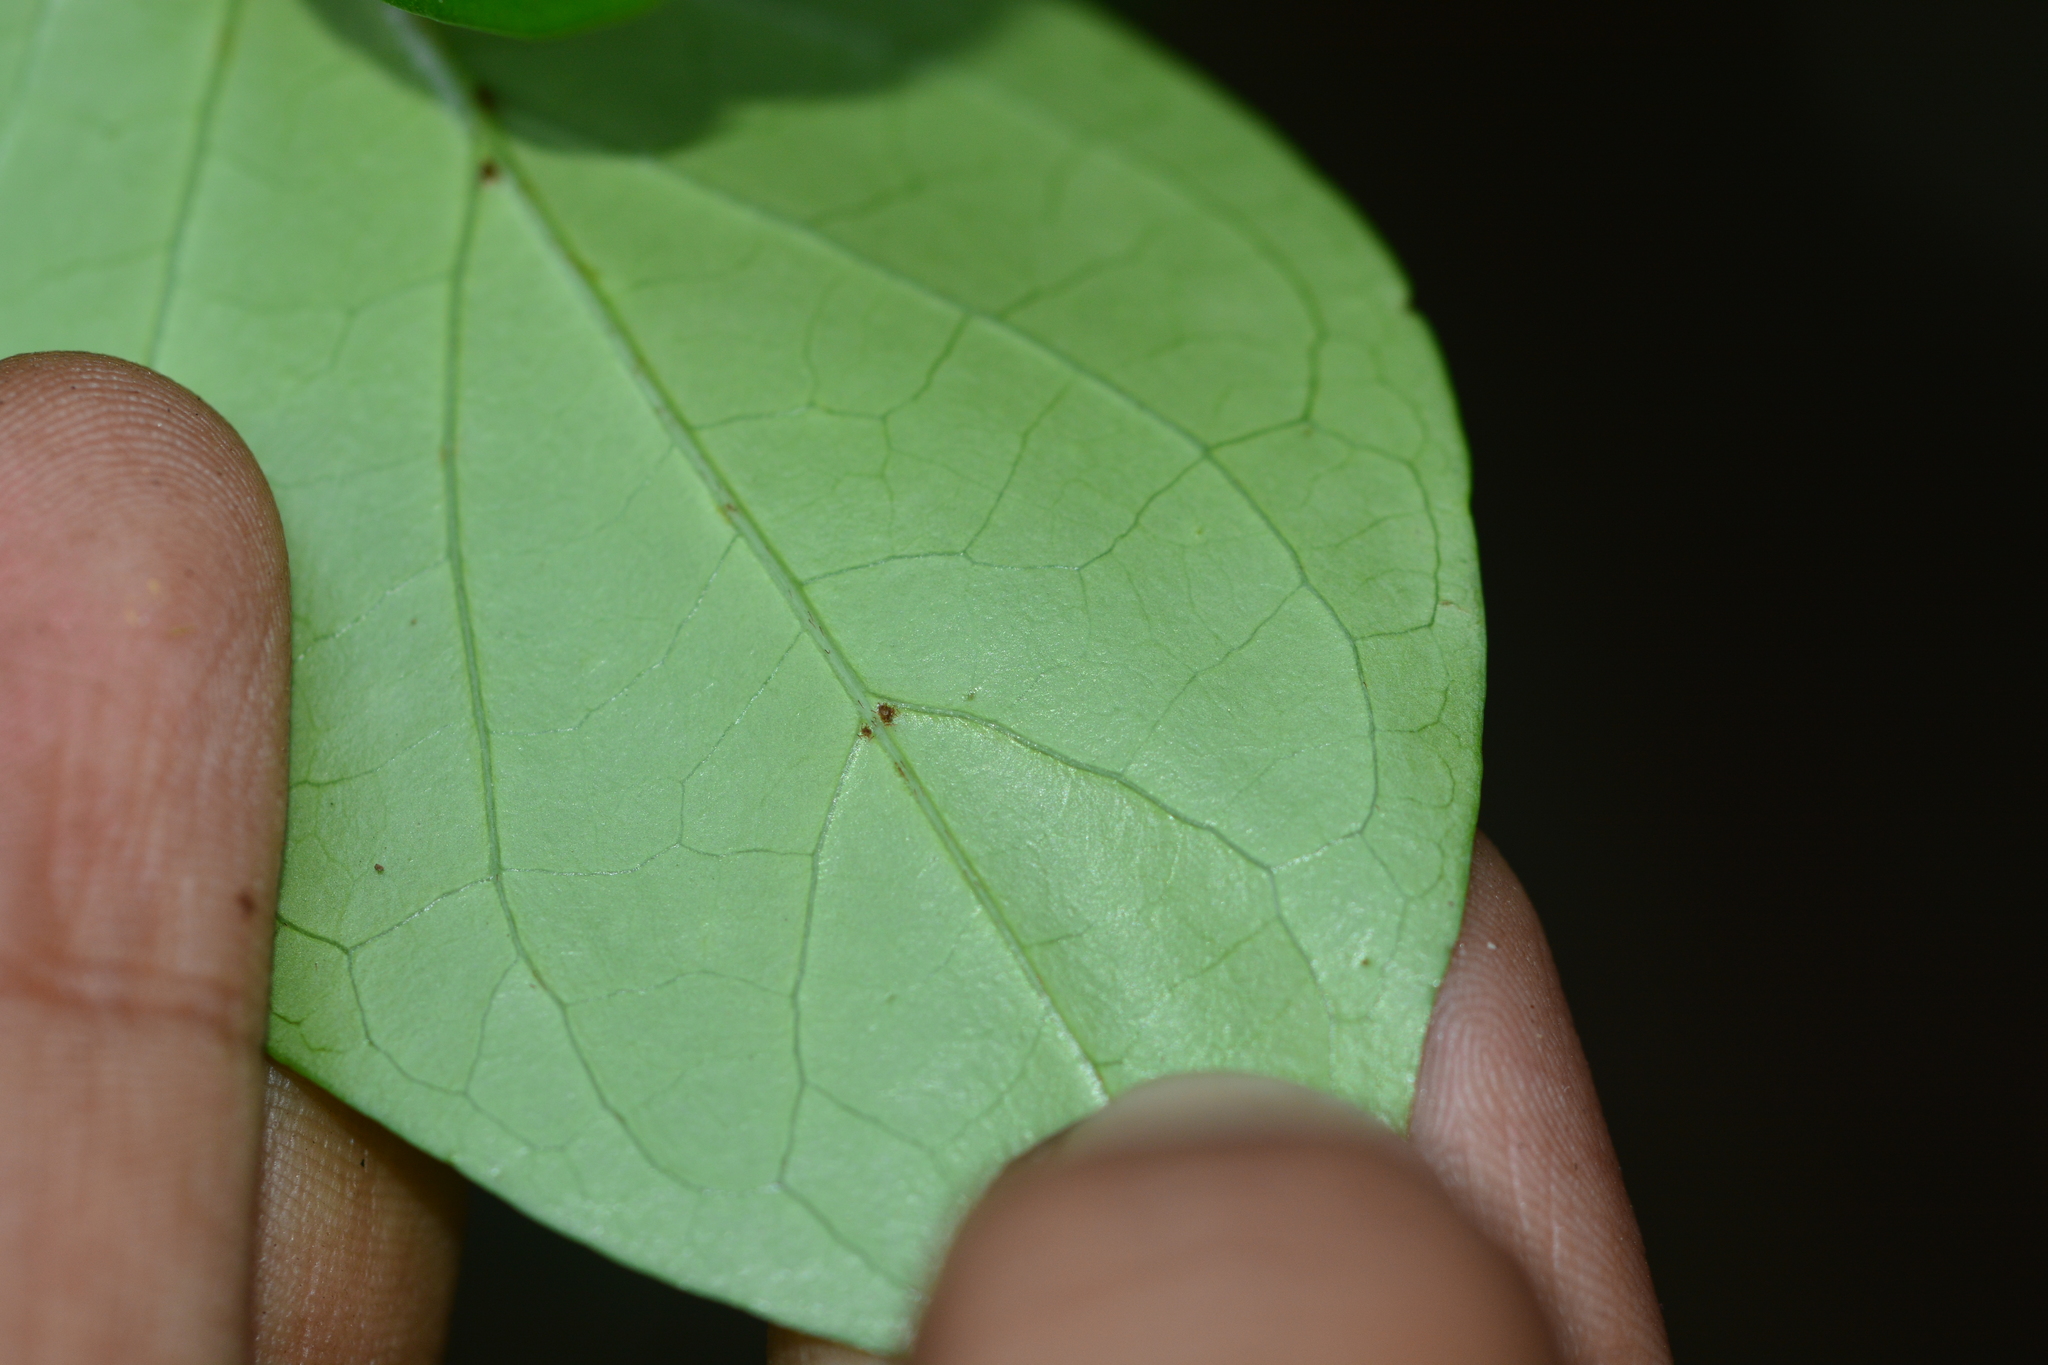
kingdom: Plantae
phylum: Tracheophyta
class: Magnoliopsida
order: Gentianales
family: Rubiaceae
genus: Canthium
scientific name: Canthium angustifolium
